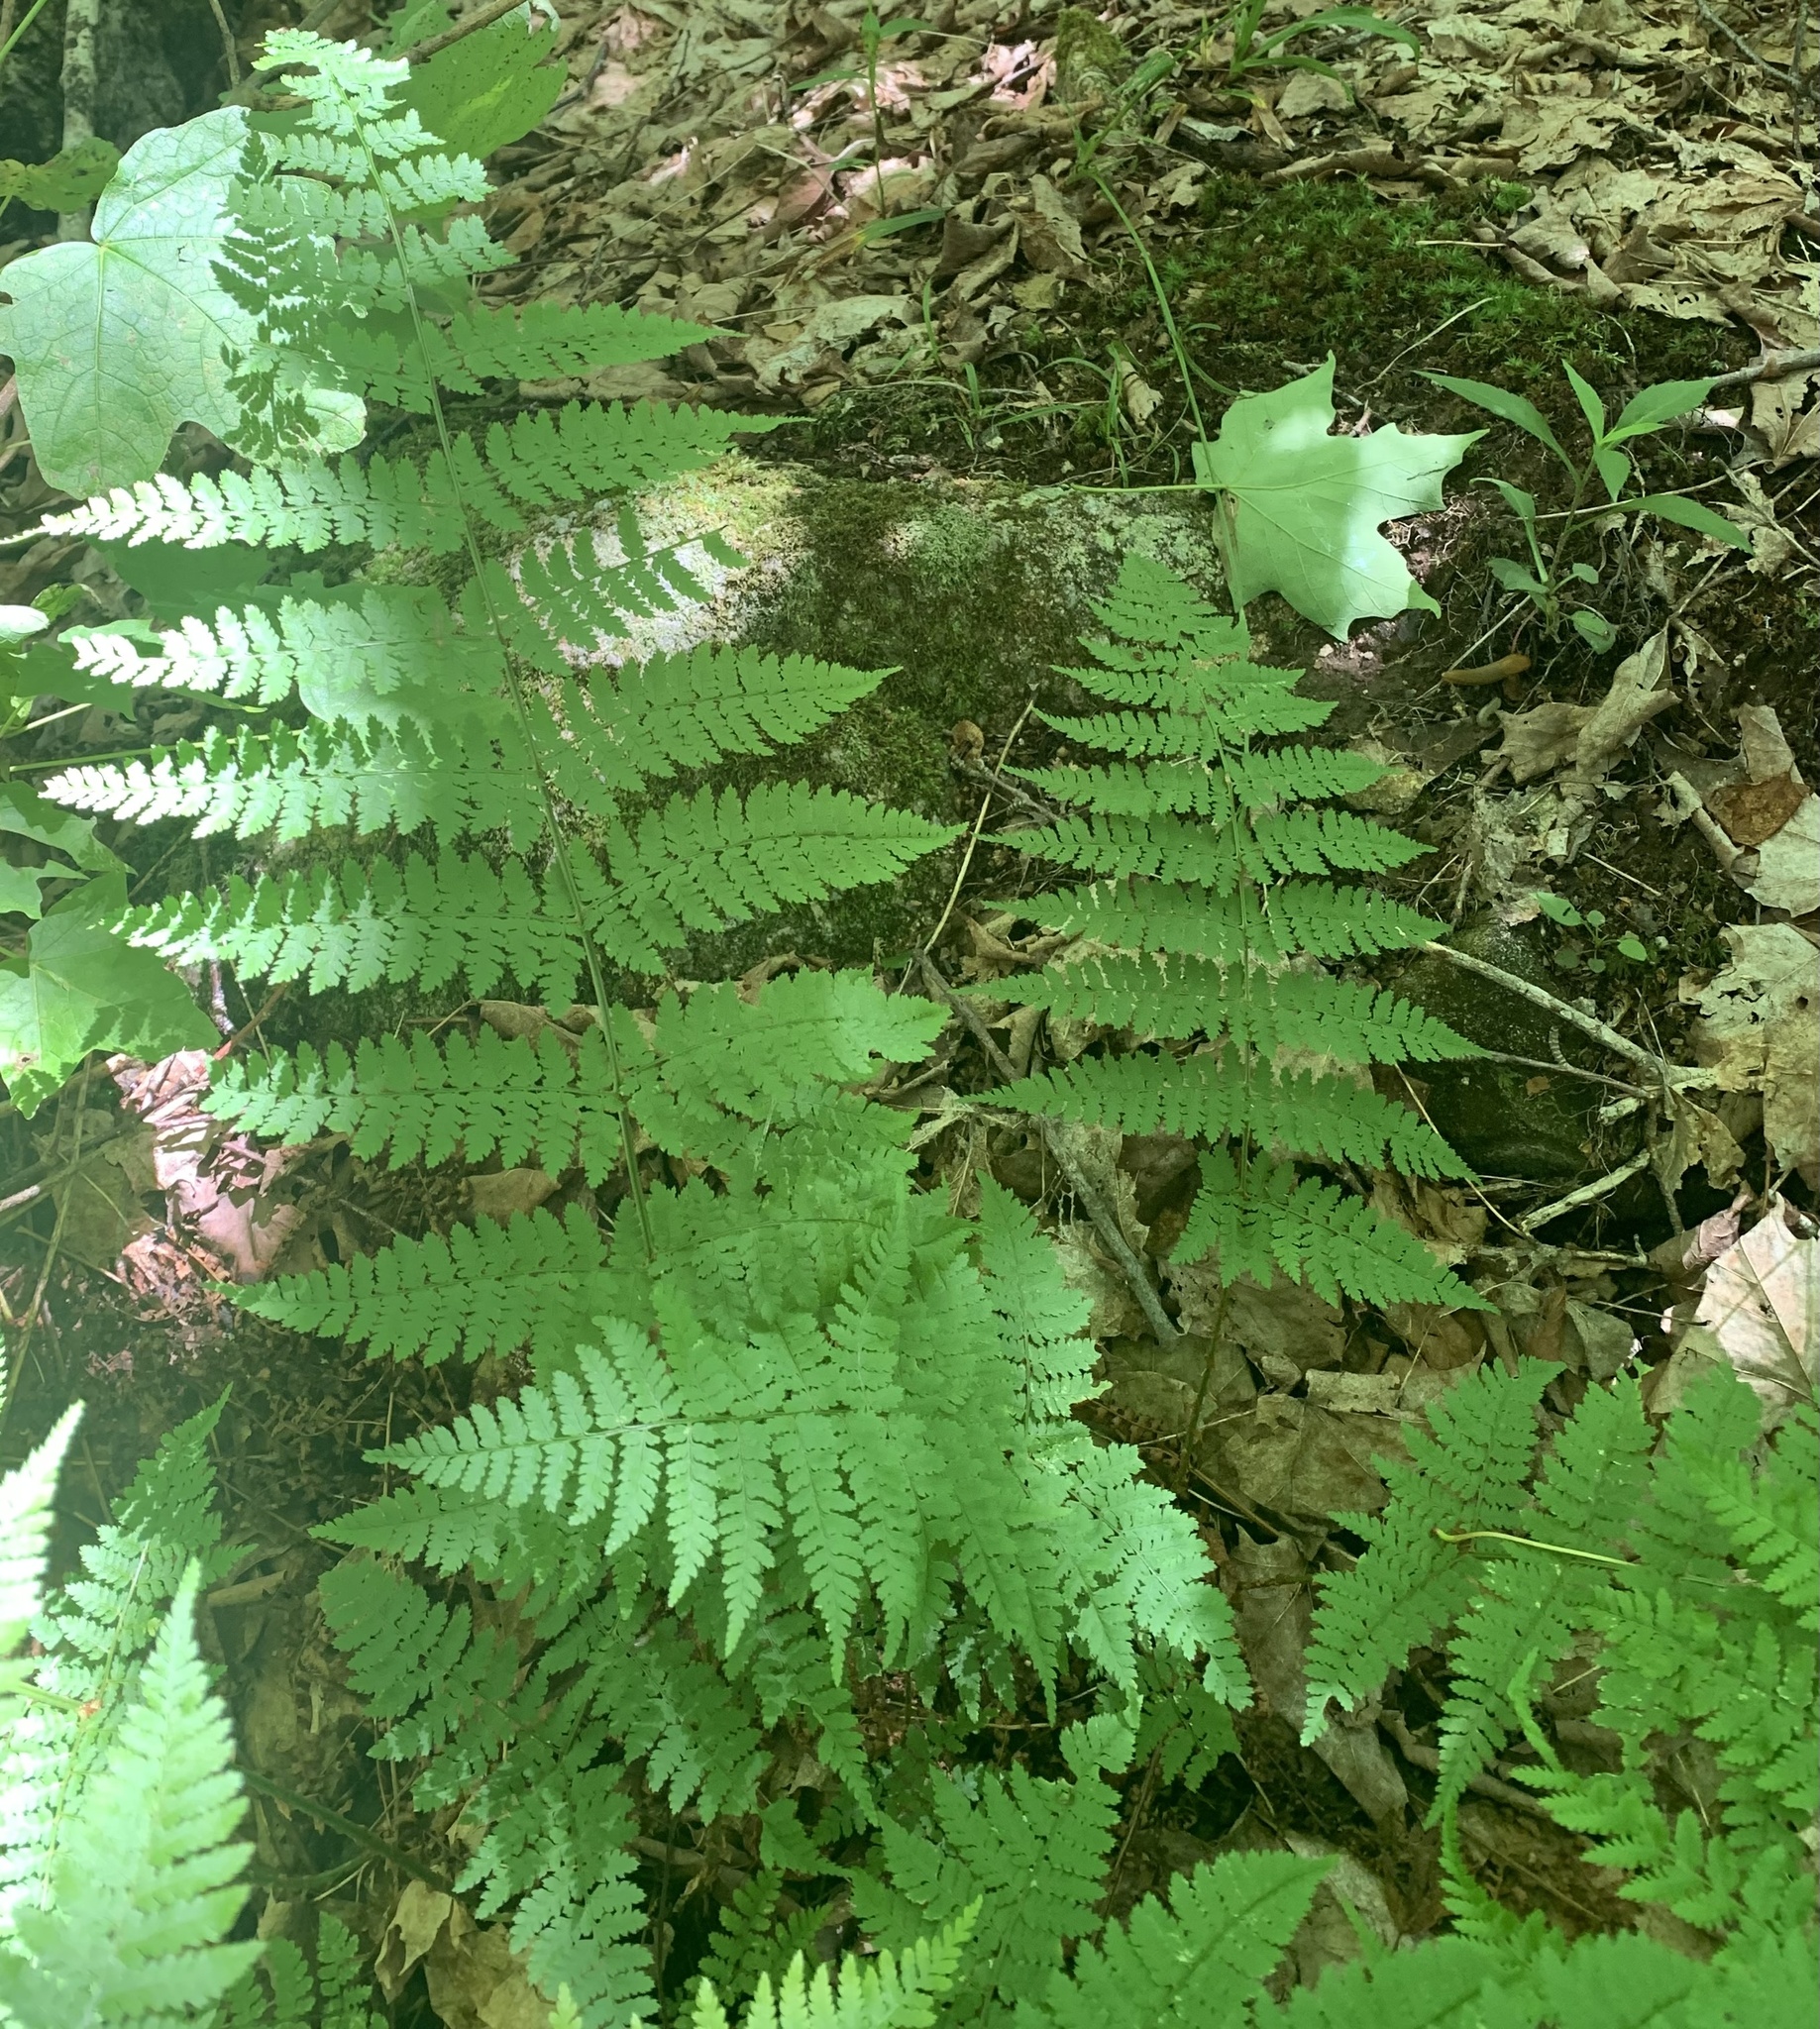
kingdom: Plantae
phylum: Tracheophyta
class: Polypodiopsida
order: Polypodiales
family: Dryopteridaceae
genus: Dryopteris
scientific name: Dryopteris intermedia
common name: Evergreen wood fern
